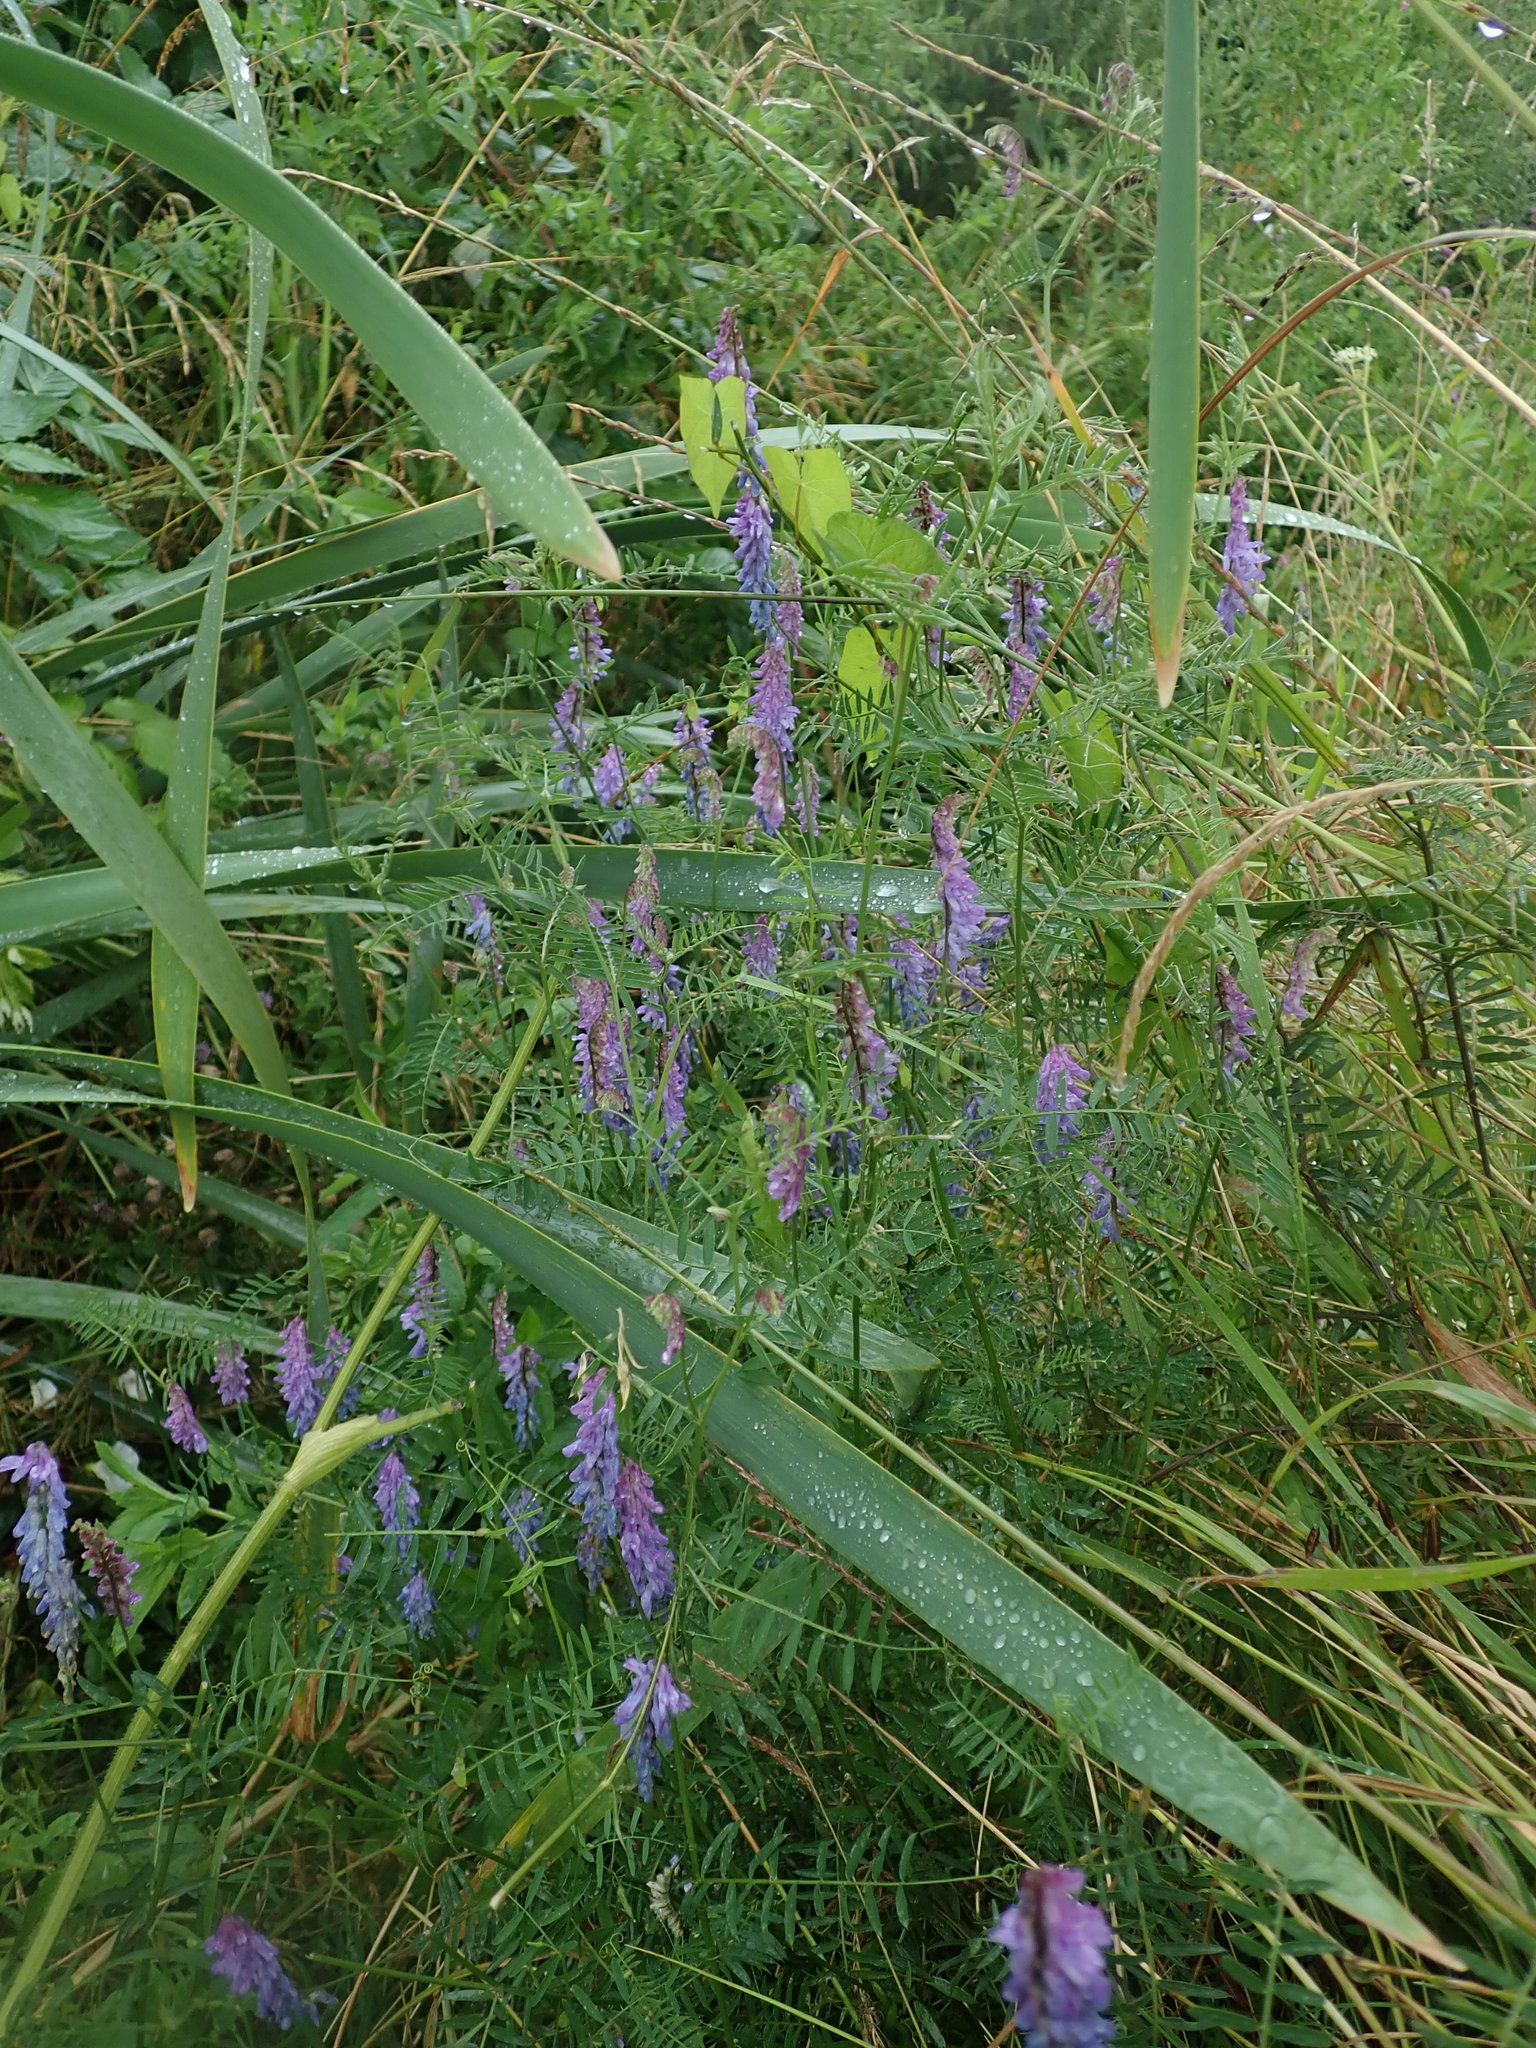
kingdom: Plantae
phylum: Tracheophyta
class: Magnoliopsida
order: Fabales
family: Fabaceae
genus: Vicia
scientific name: Vicia cracca
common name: Bird vetch
